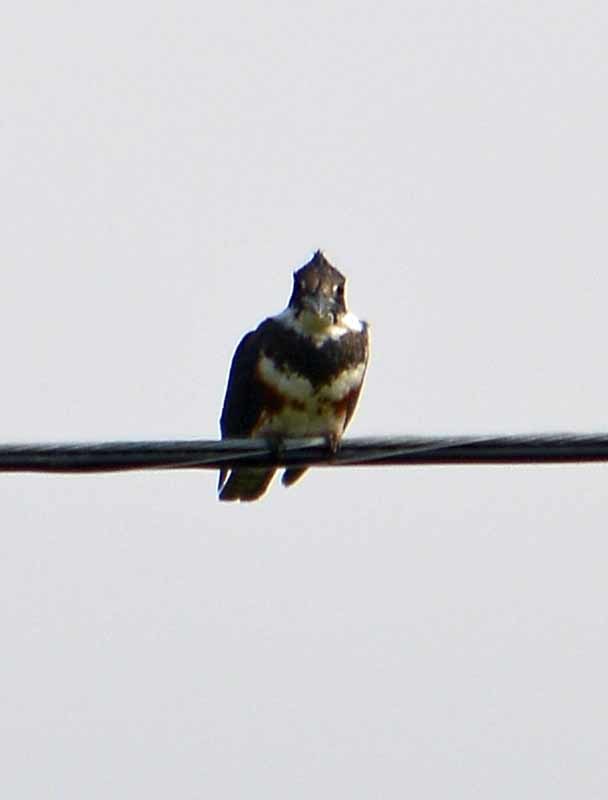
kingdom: Animalia
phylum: Chordata
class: Aves
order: Coraciiformes
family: Alcedinidae
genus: Megaceryle
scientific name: Megaceryle alcyon
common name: Belted kingfisher
